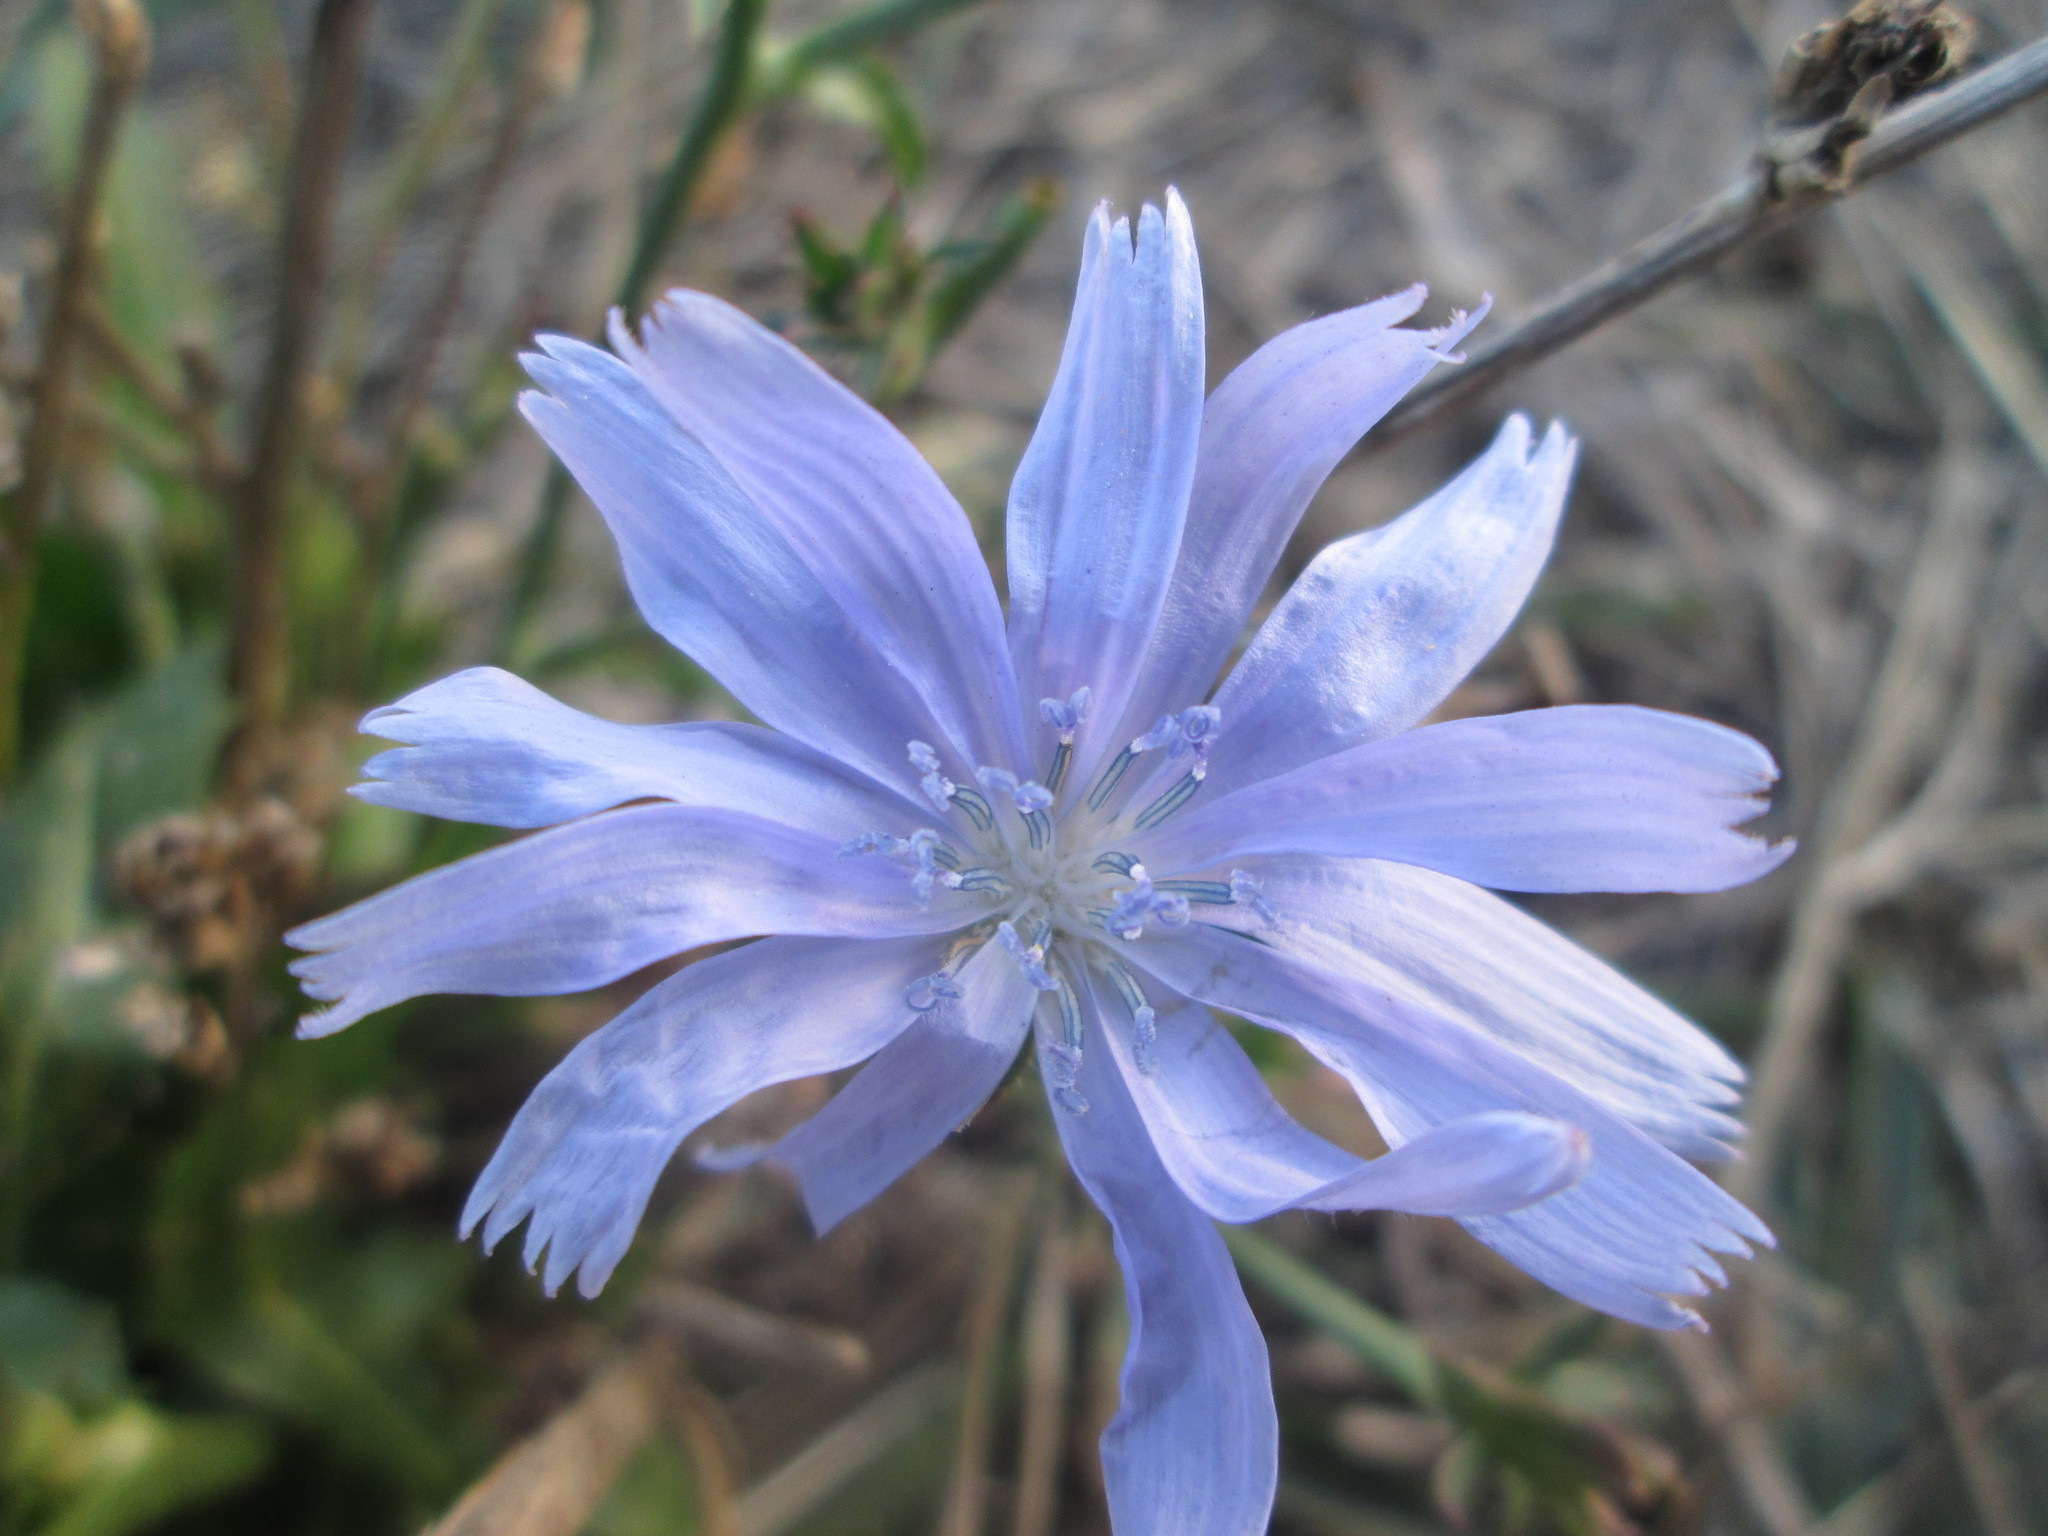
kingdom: Plantae
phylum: Tracheophyta
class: Magnoliopsida
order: Asterales
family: Asteraceae
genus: Cichorium
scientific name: Cichorium intybus
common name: Chicory
